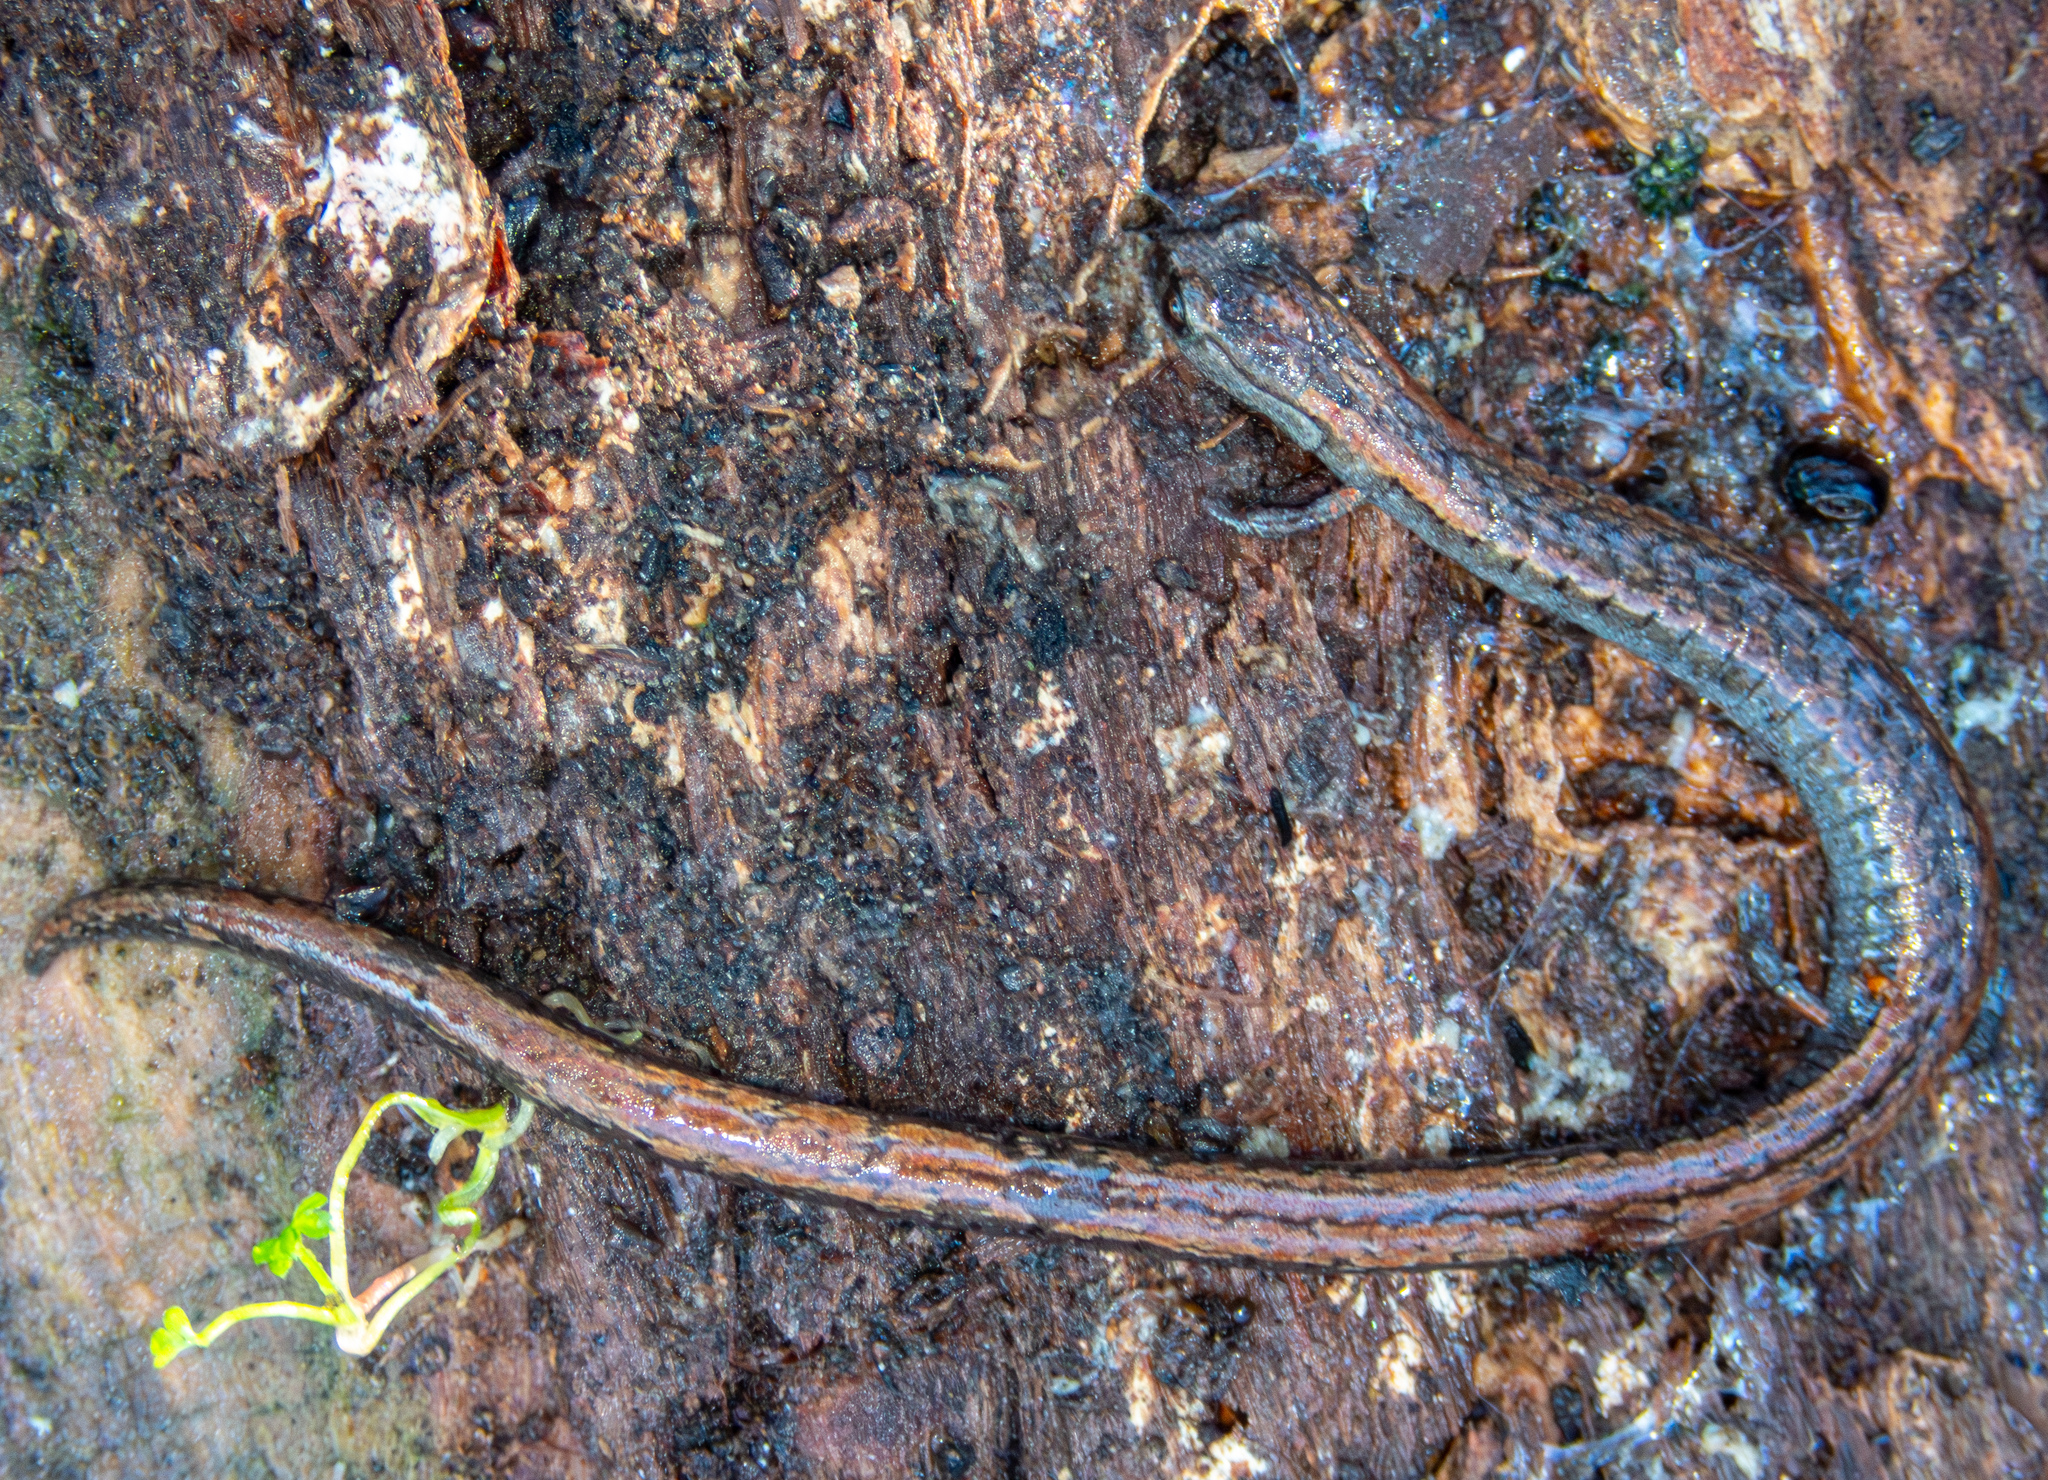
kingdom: Animalia
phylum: Chordata
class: Amphibia
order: Caudata
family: Plethodontidae
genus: Batrachoseps
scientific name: Batrachoseps attenuatus
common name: California slender salamander
